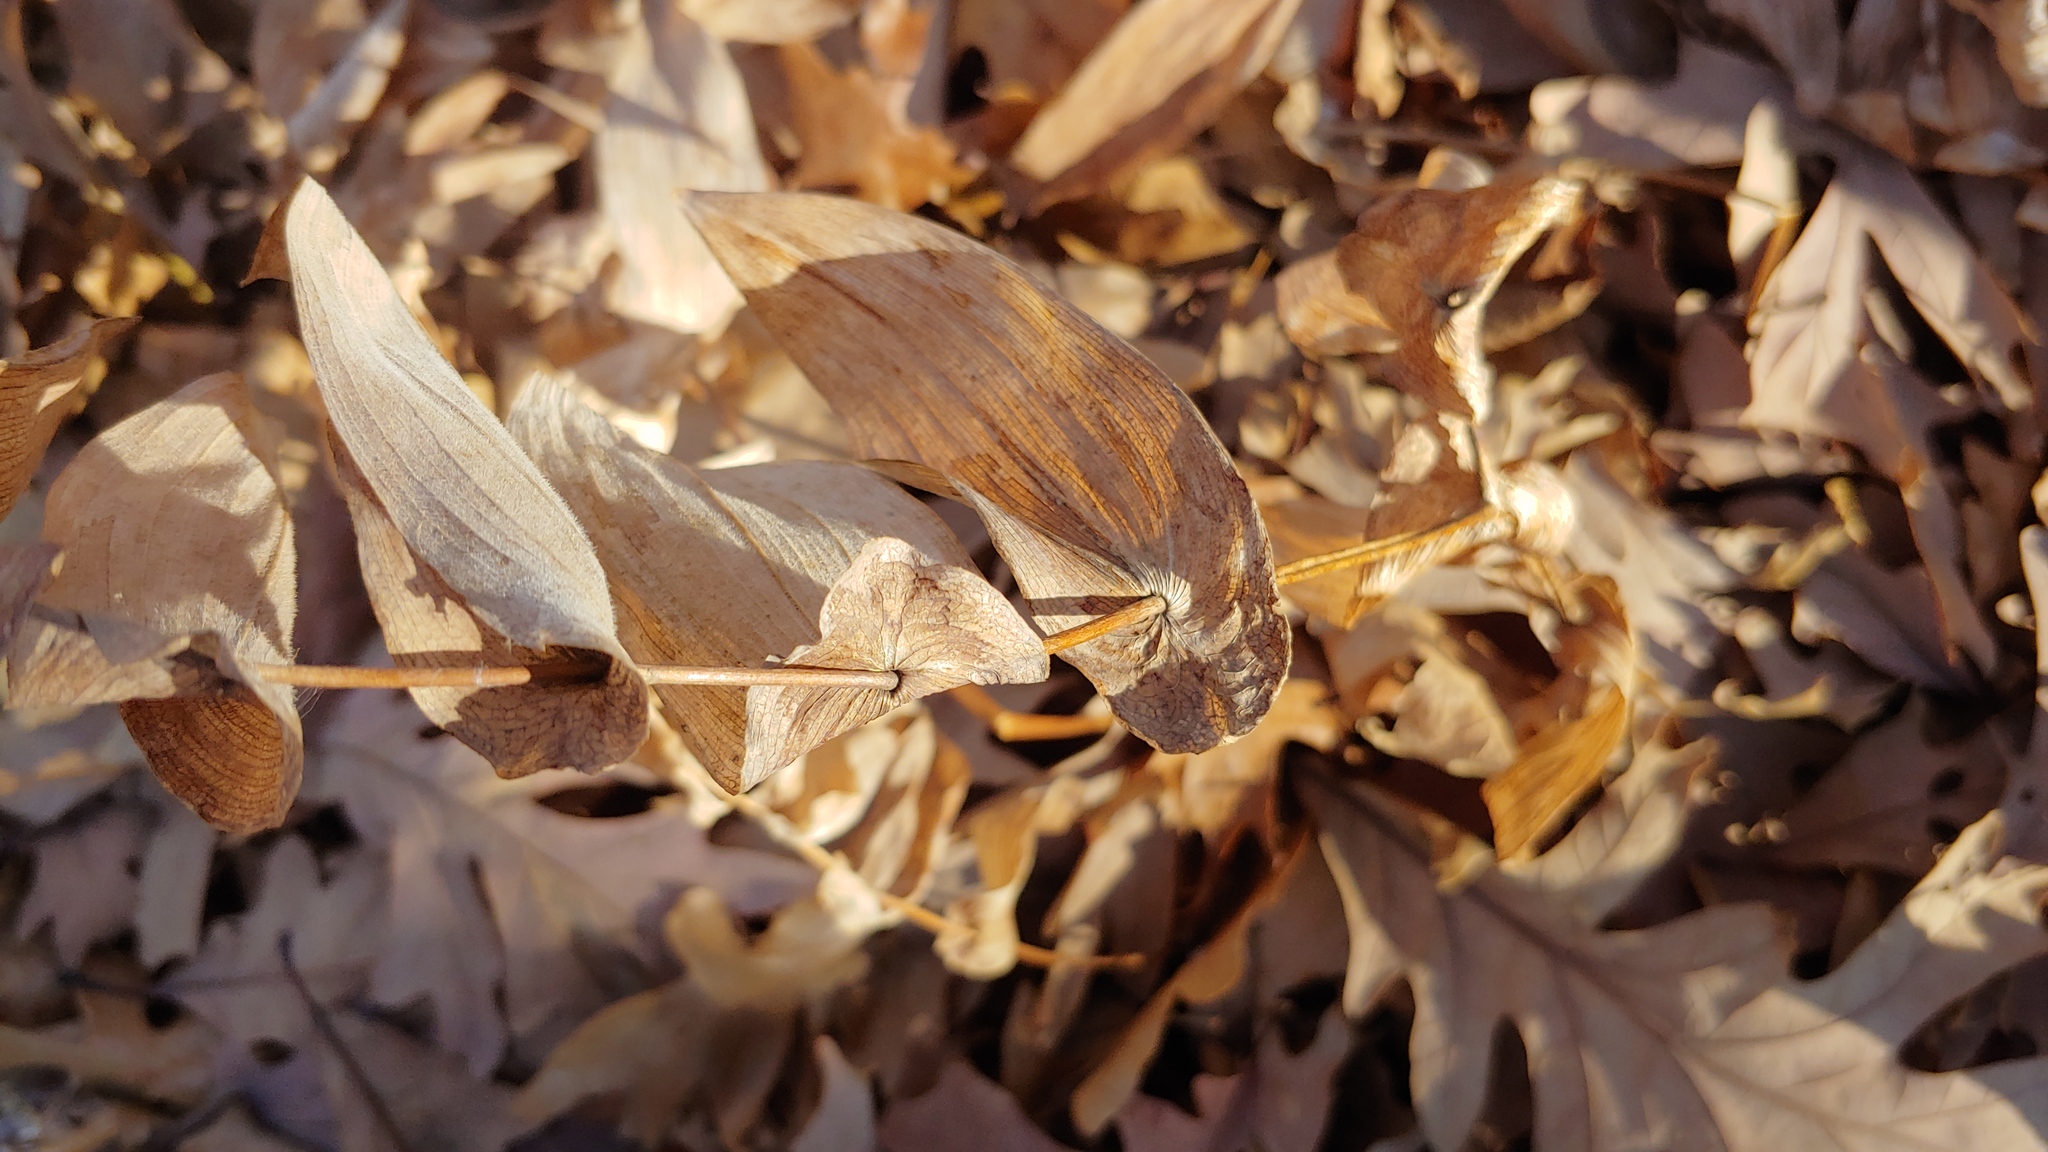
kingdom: Plantae
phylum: Tracheophyta
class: Liliopsida
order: Liliales
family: Colchicaceae
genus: Uvularia
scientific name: Uvularia grandiflora
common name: Bellwort
